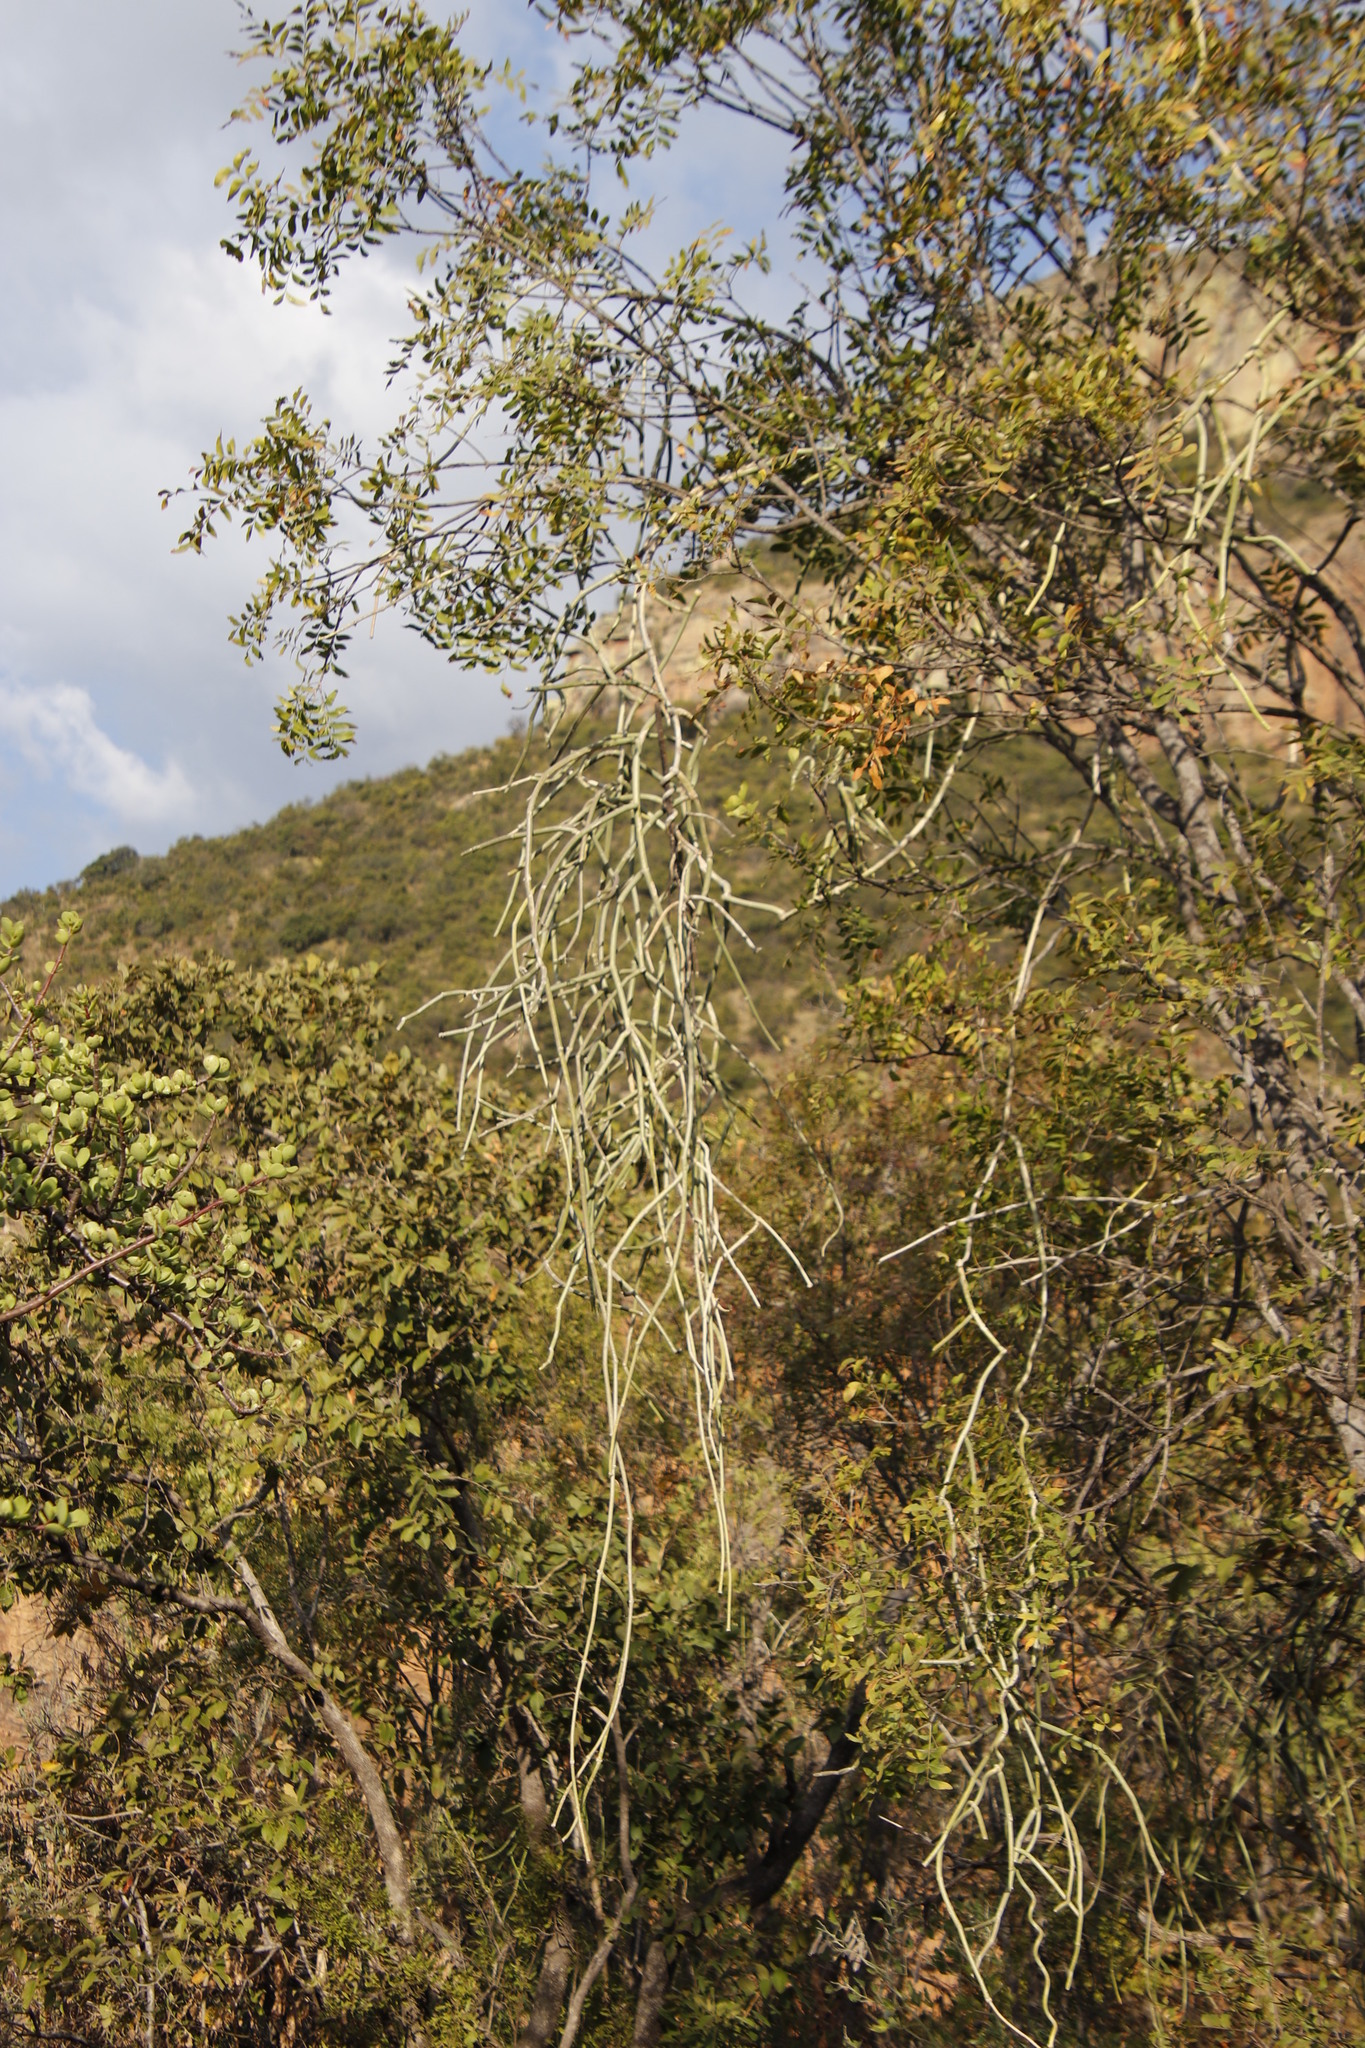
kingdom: Plantae
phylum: Tracheophyta
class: Magnoliopsida
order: Gentianales
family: Apocynaceae
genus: Cynanchum
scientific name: Cynanchum viminale
